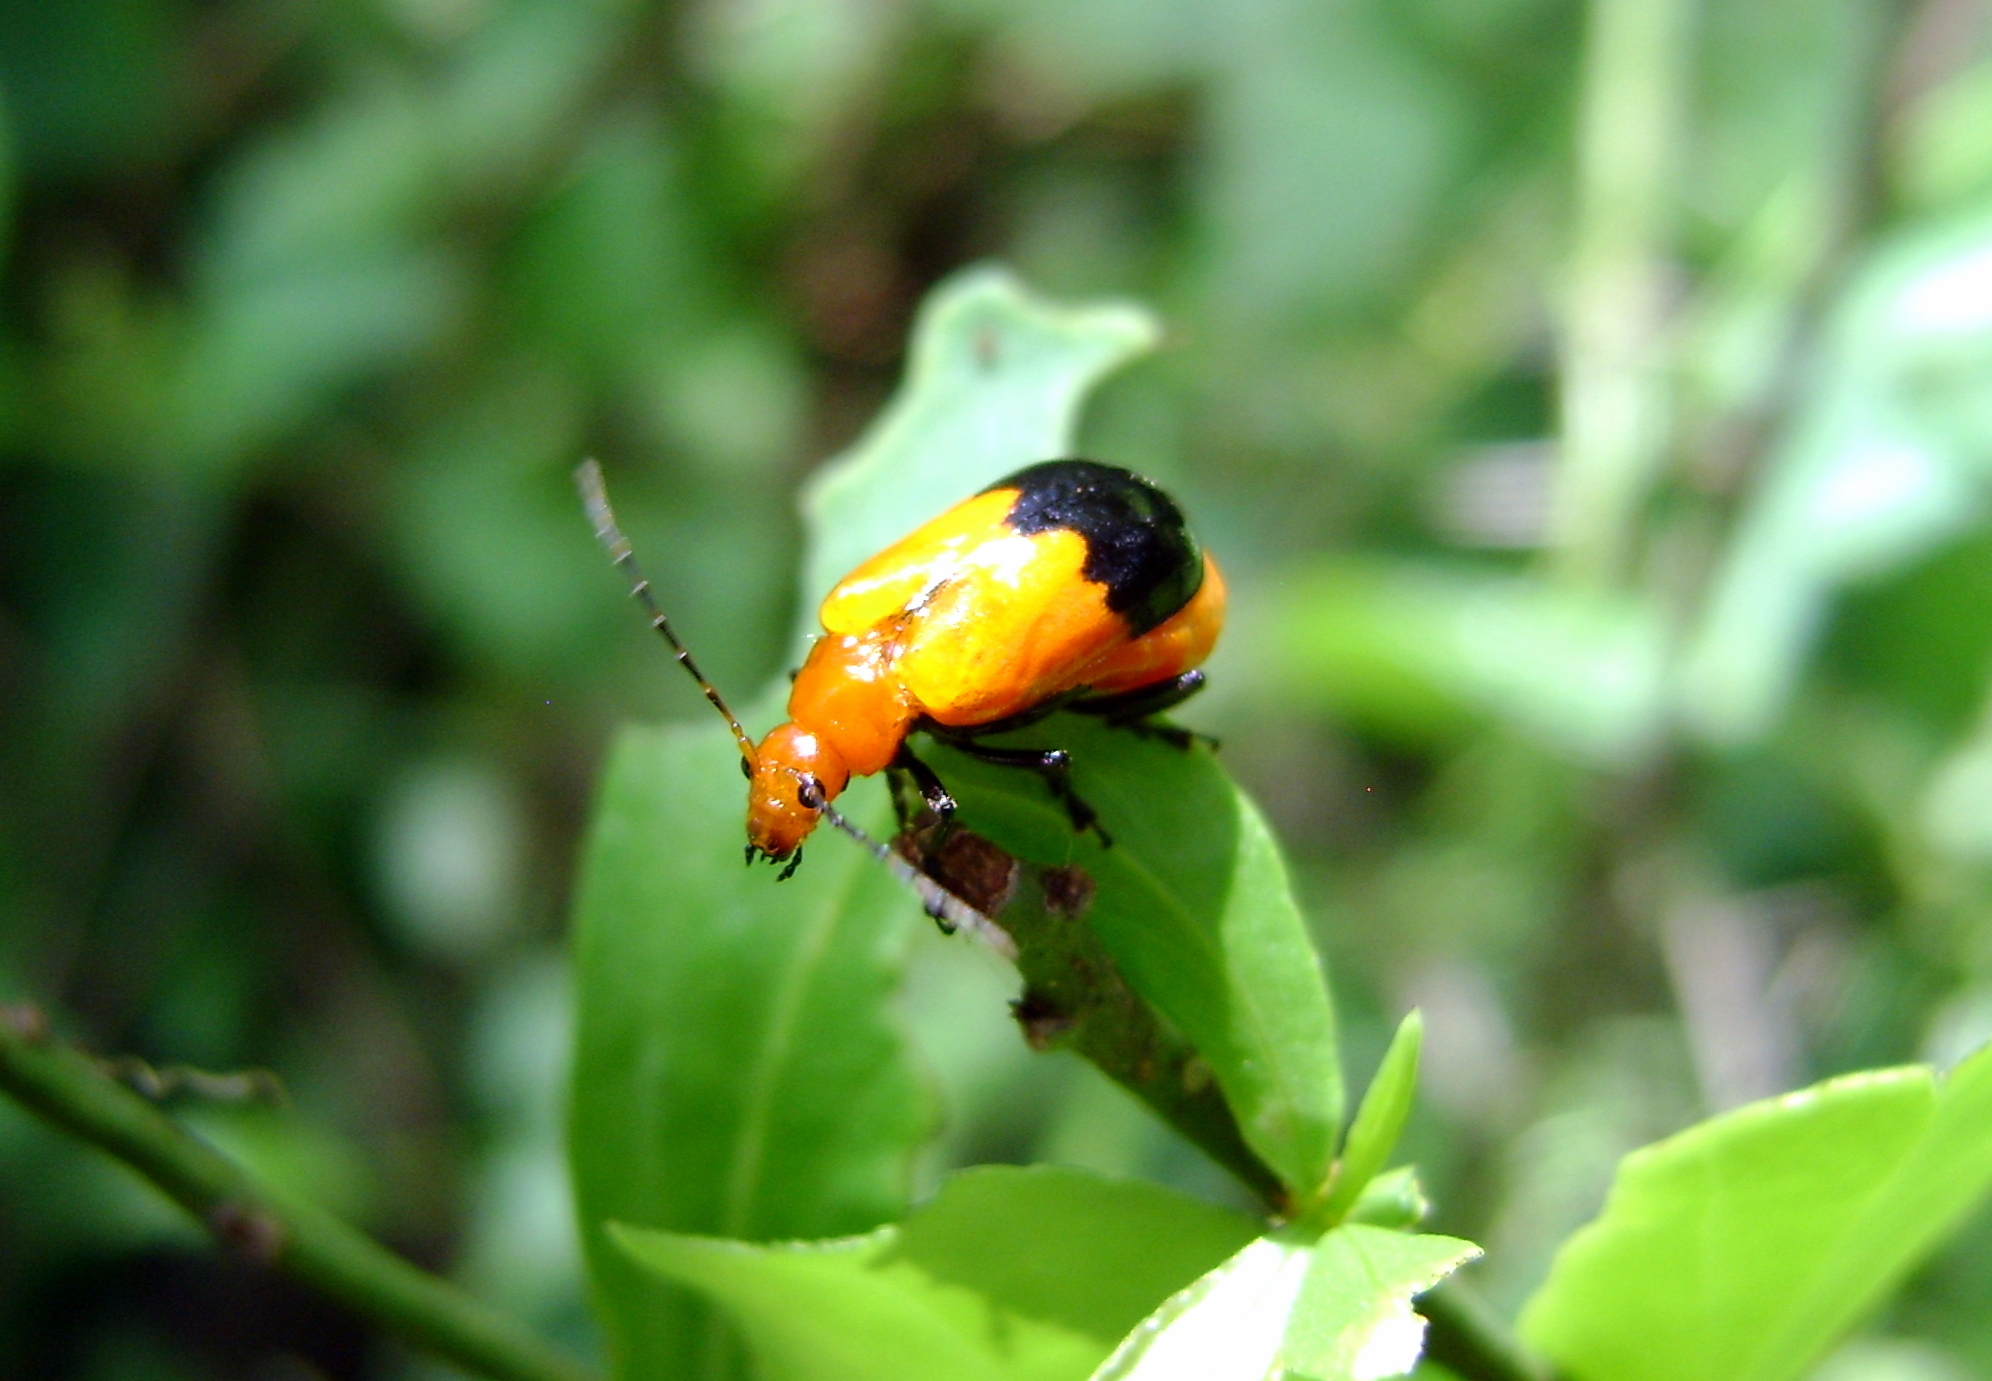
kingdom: Animalia
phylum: Arthropoda
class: Insecta
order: Coleoptera
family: Chrysomelidae
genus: Prosmidia
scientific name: Prosmidia
